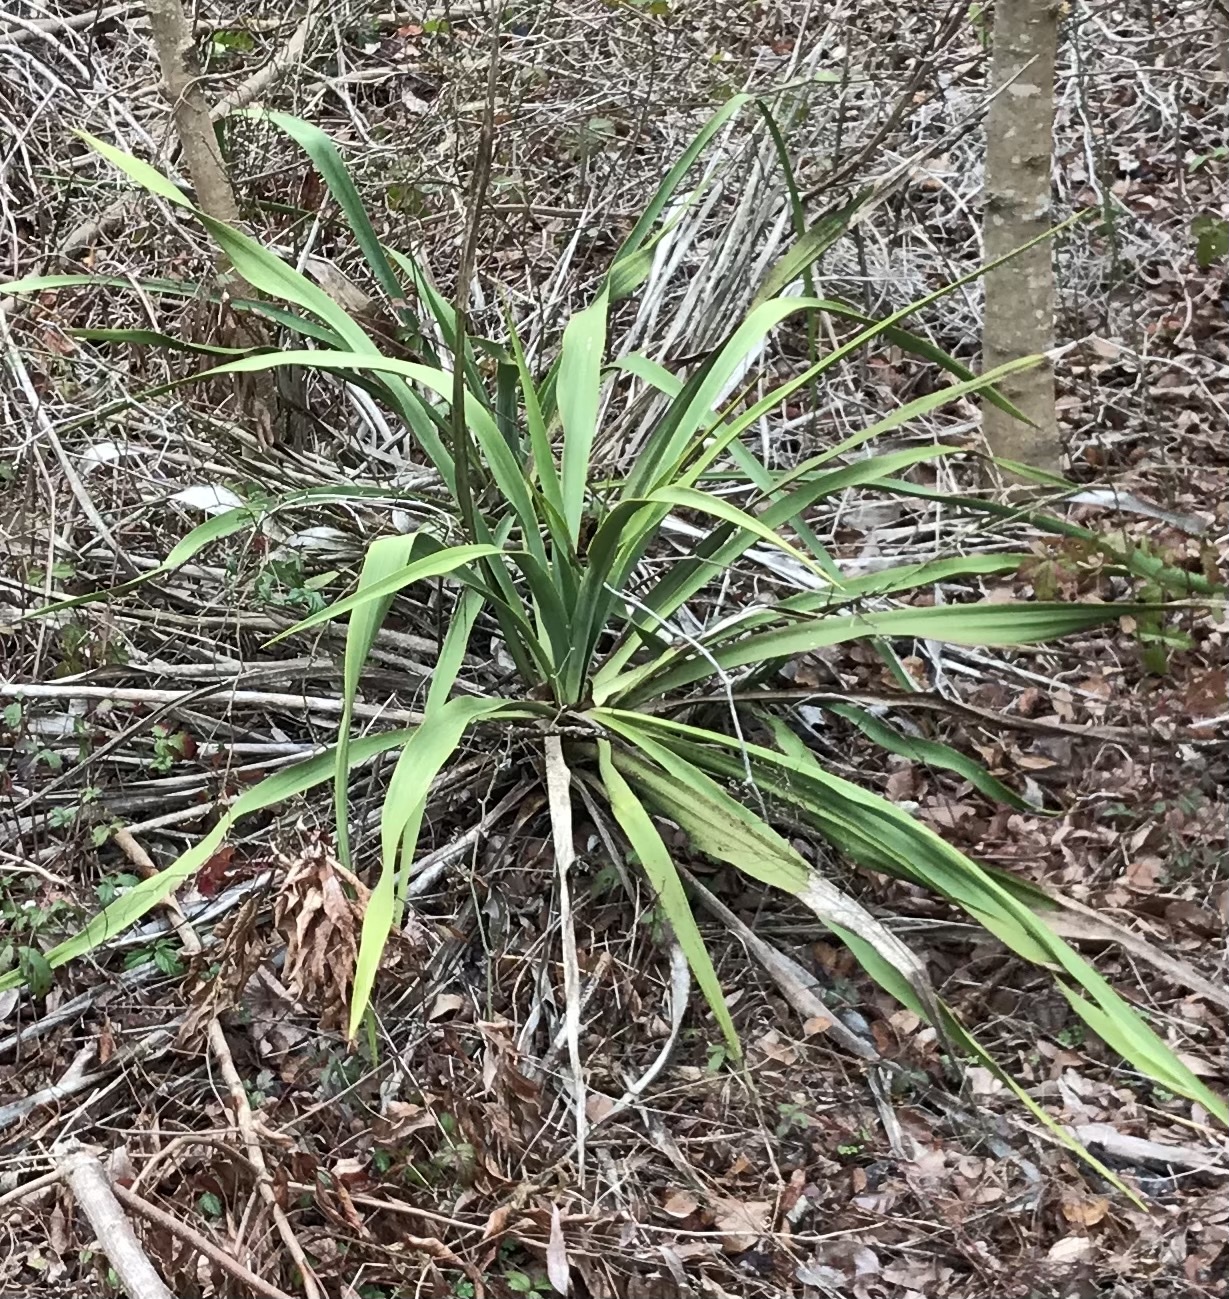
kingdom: Plantae
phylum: Tracheophyta
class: Liliopsida
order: Asparagales
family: Asparagaceae
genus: Yucca
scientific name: Yucca rupicola
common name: Twisted-leaf spanish-dagger
